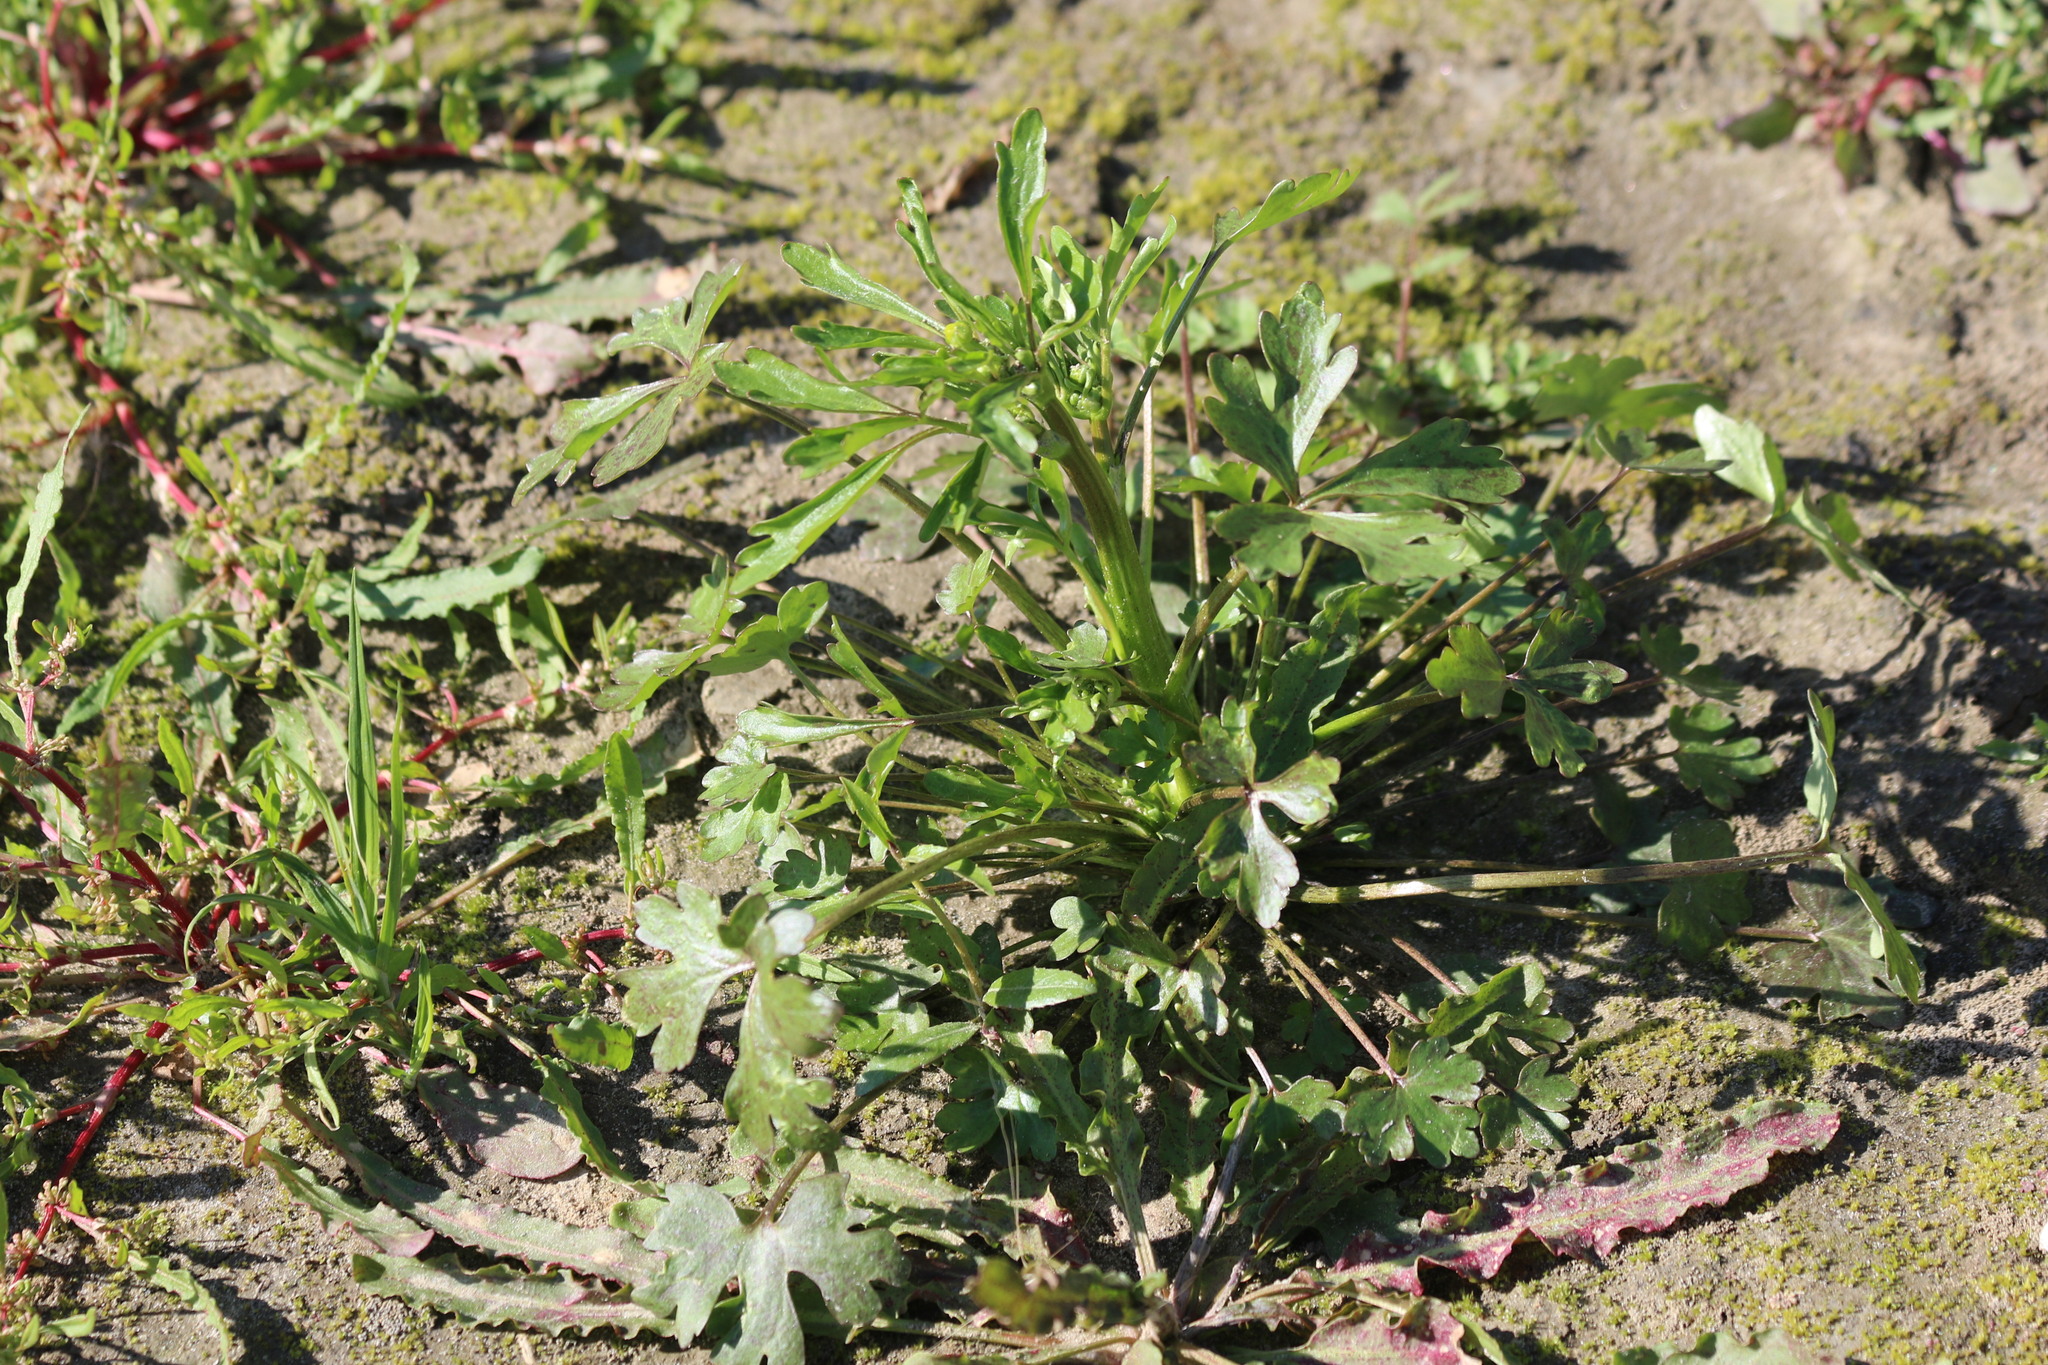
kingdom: Plantae
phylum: Tracheophyta
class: Magnoliopsida
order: Ranunculales
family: Ranunculaceae
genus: Ranunculus
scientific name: Ranunculus sceleratus
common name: Celery-leaved buttercup
